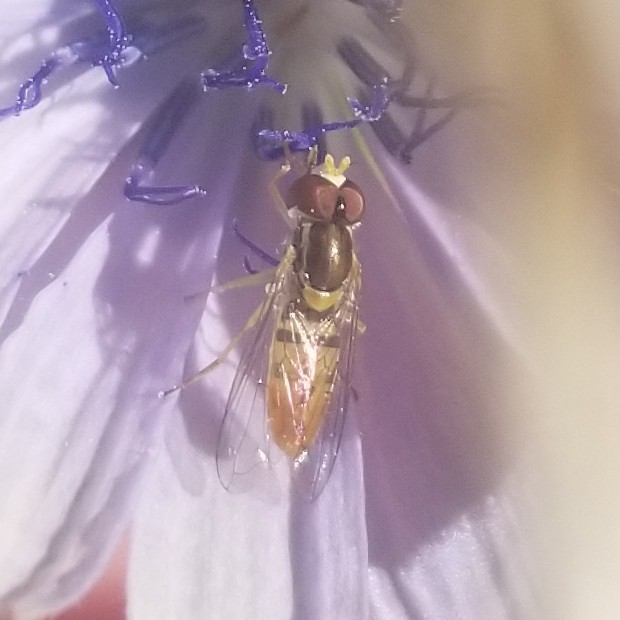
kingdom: Animalia
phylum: Arthropoda
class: Insecta
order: Diptera
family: Syrphidae
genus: Toxomerus
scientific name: Toxomerus marginatus
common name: Syrphid fly
